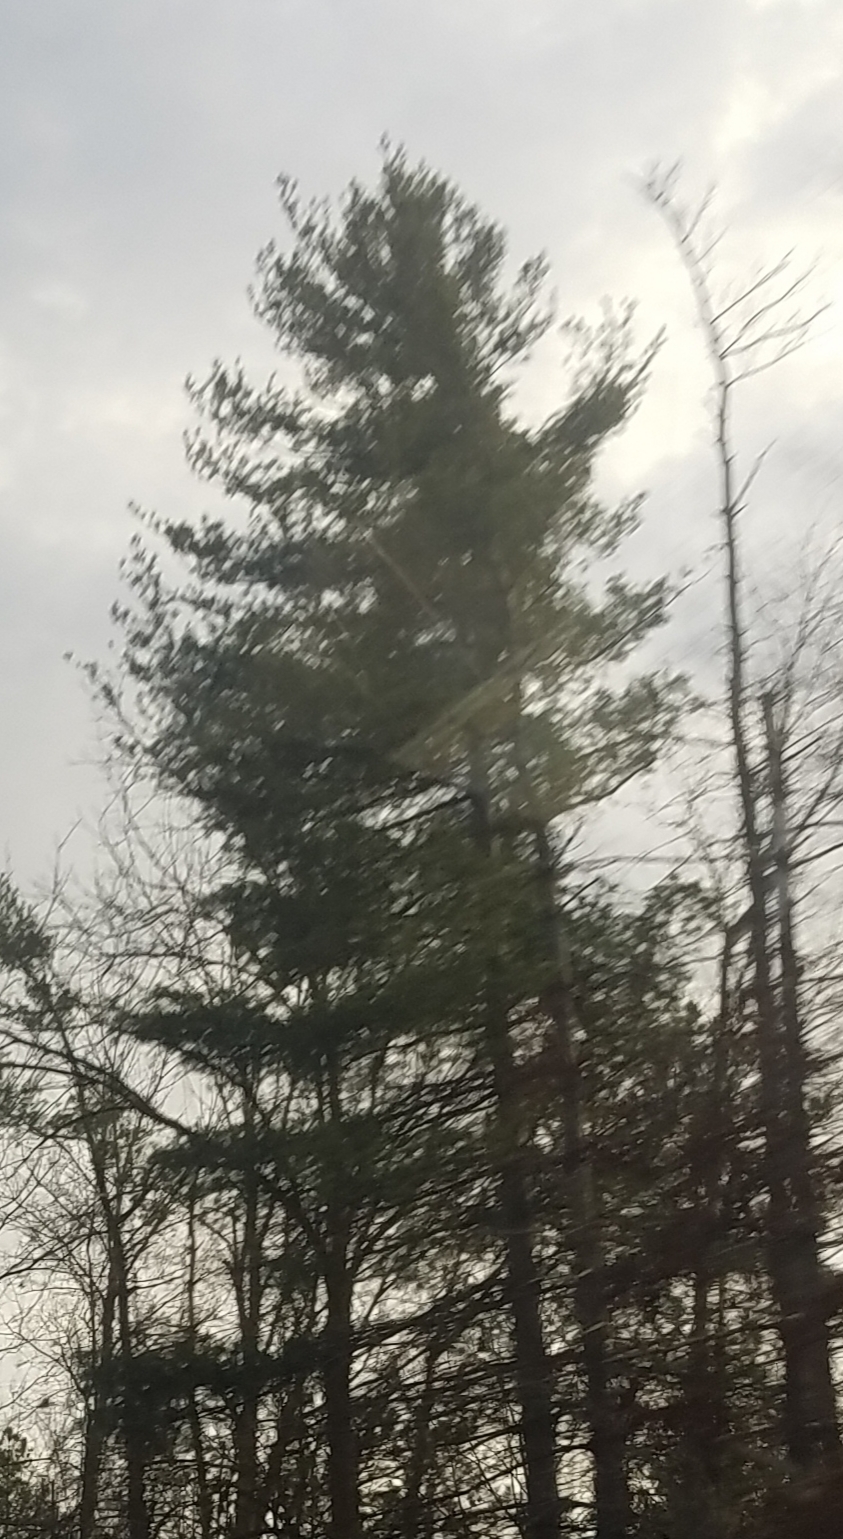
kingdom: Plantae
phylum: Tracheophyta
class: Pinopsida
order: Pinales
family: Pinaceae
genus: Pinus
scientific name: Pinus strobus
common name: Weymouth pine
